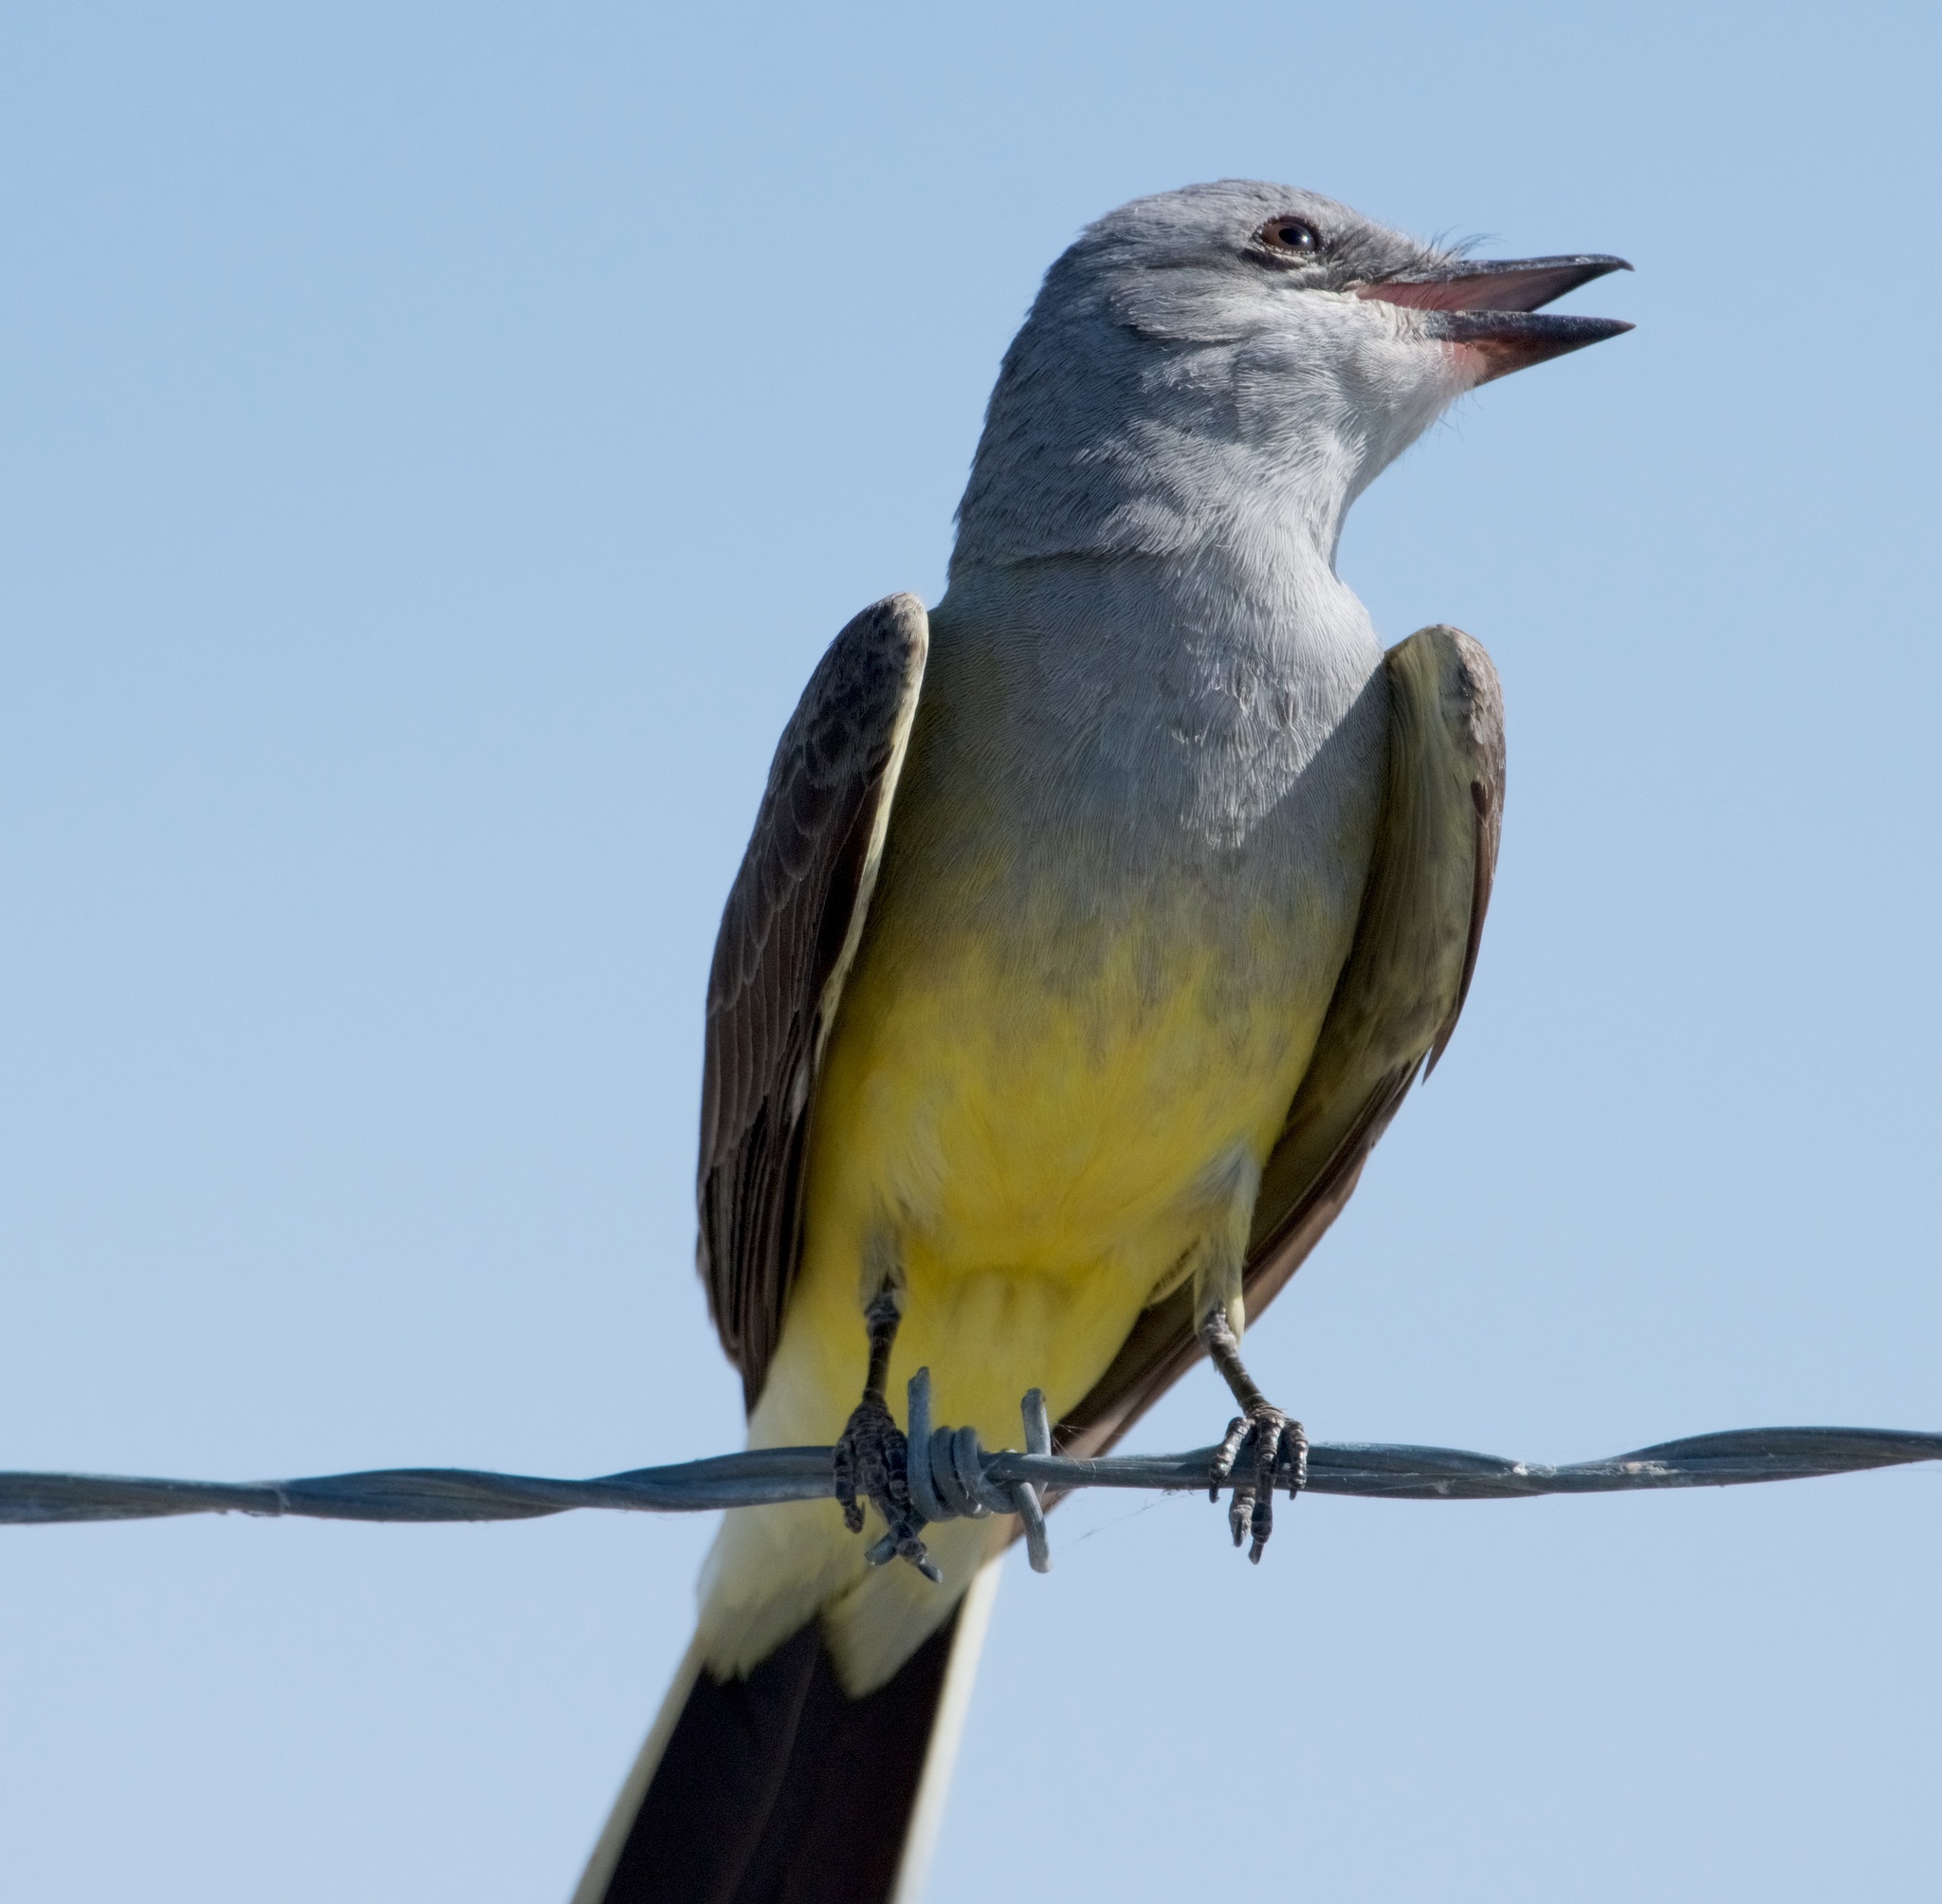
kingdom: Animalia
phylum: Chordata
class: Aves
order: Passeriformes
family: Tyrannidae
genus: Tyrannus
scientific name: Tyrannus verticalis
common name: Western kingbird
